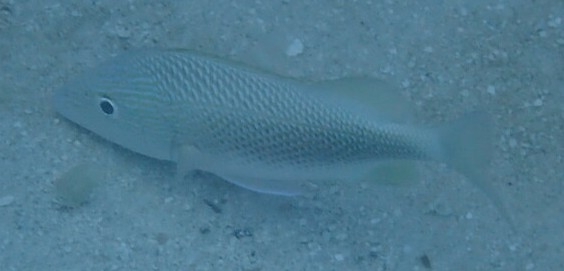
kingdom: Animalia
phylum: Chordata
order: Perciformes
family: Haemulidae
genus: Haemulon
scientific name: Haemulon plumierii
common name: White grunt
